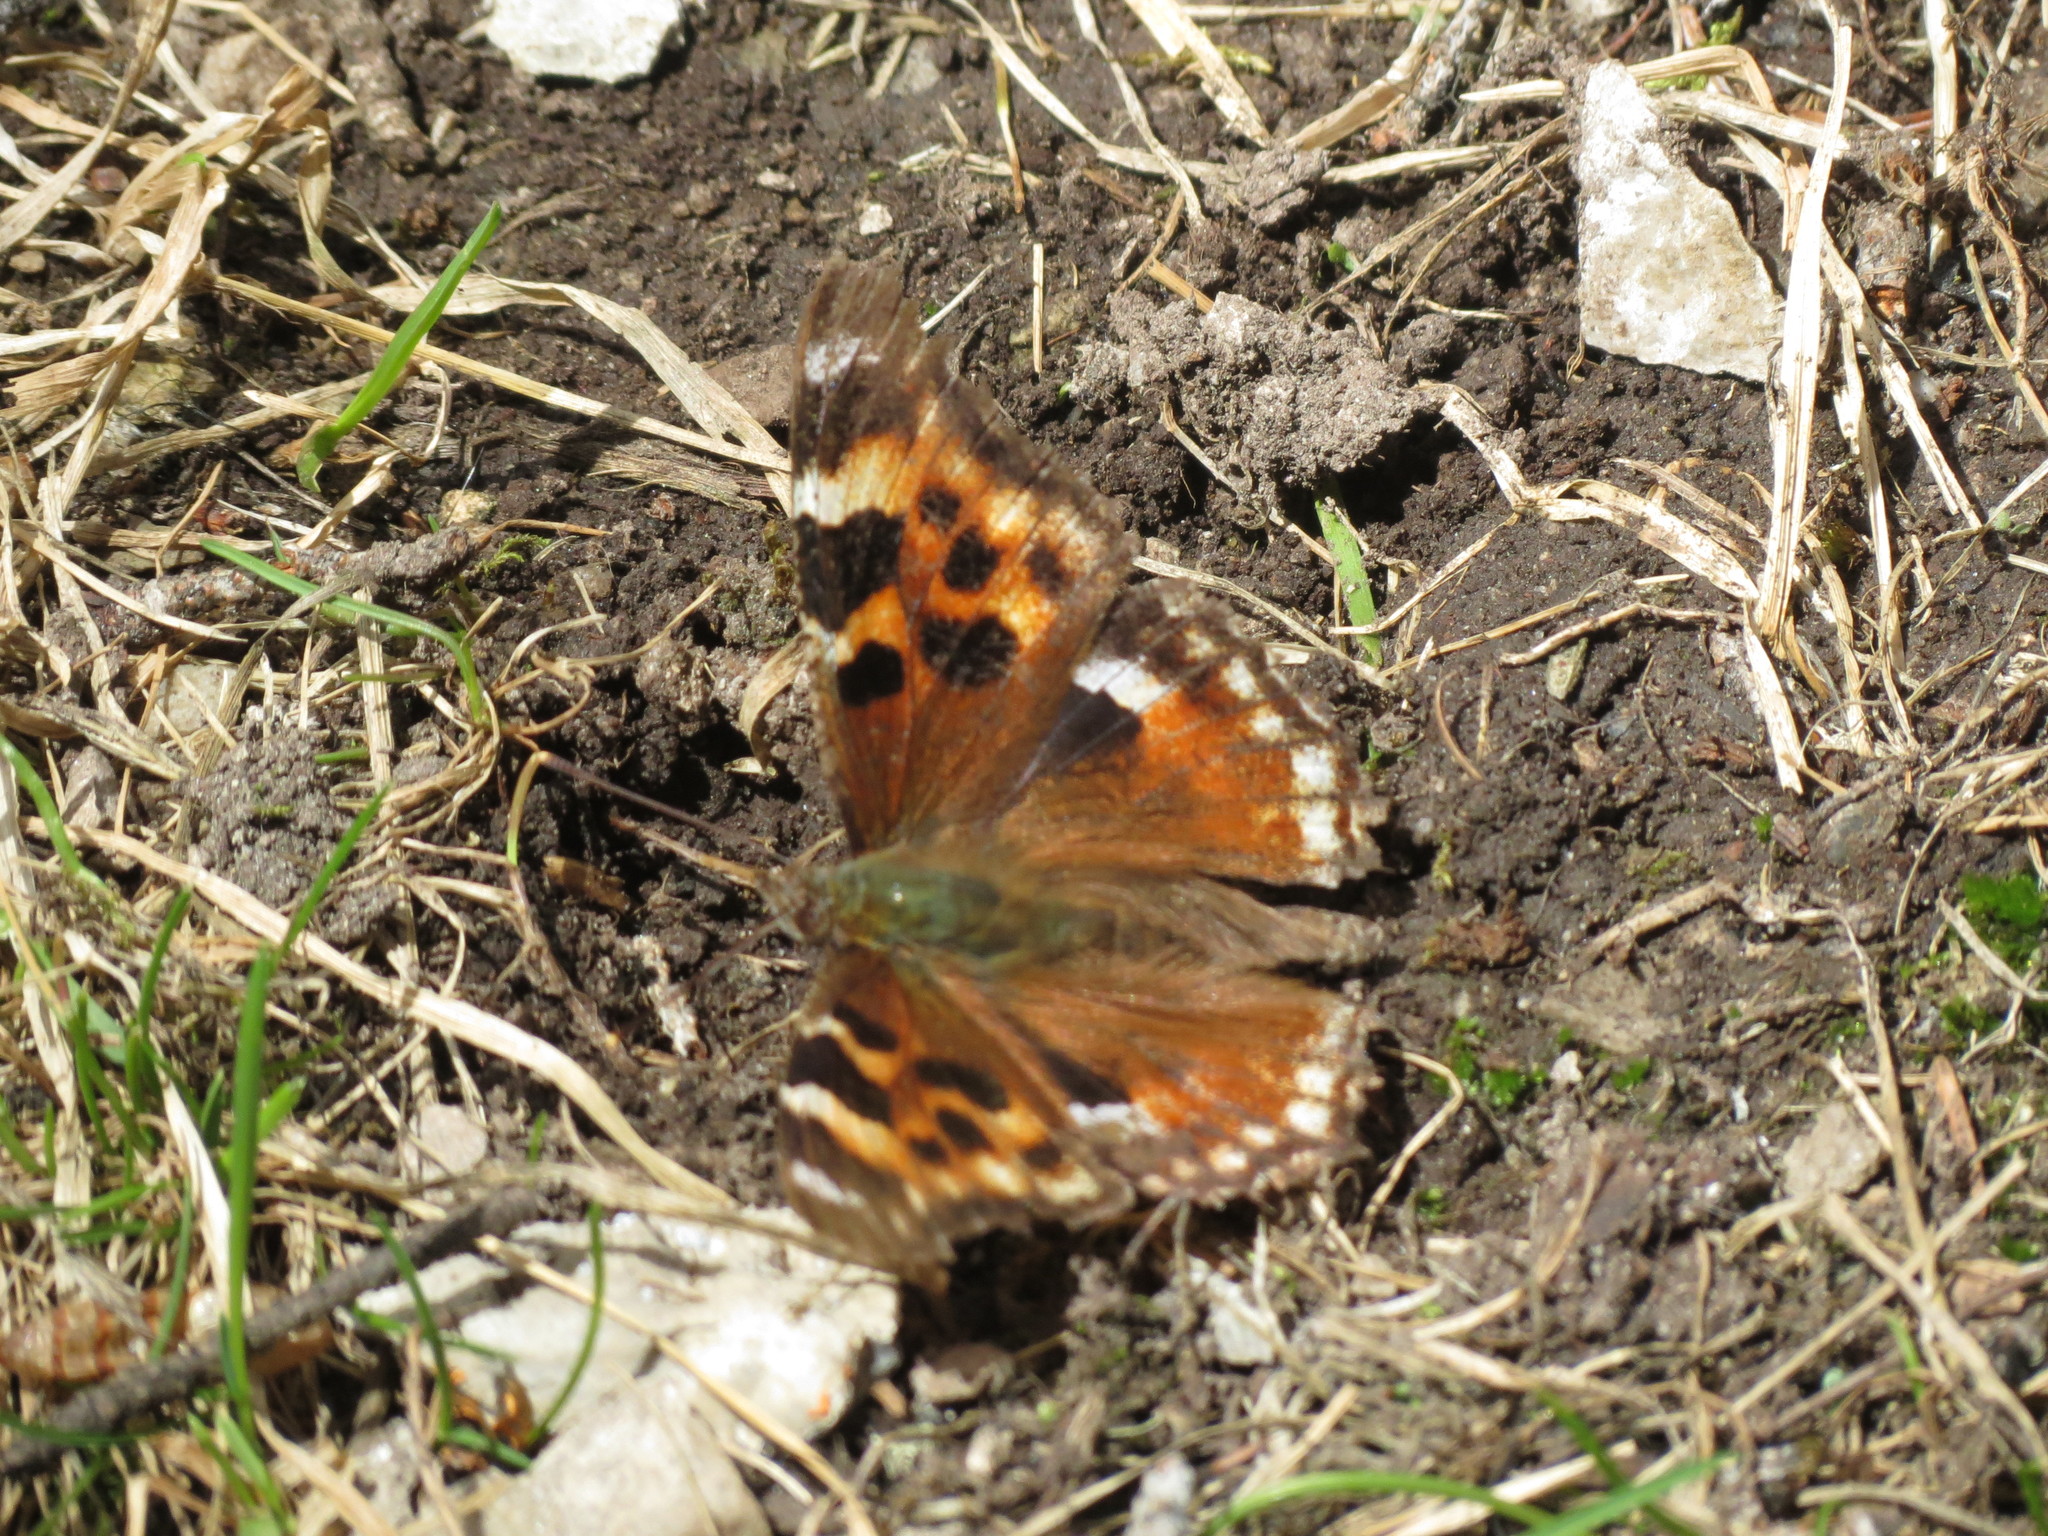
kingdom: Animalia
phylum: Arthropoda
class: Insecta
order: Lepidoptera
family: Nymphalidae
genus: Polygonia
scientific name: Polygonia vaualbum
